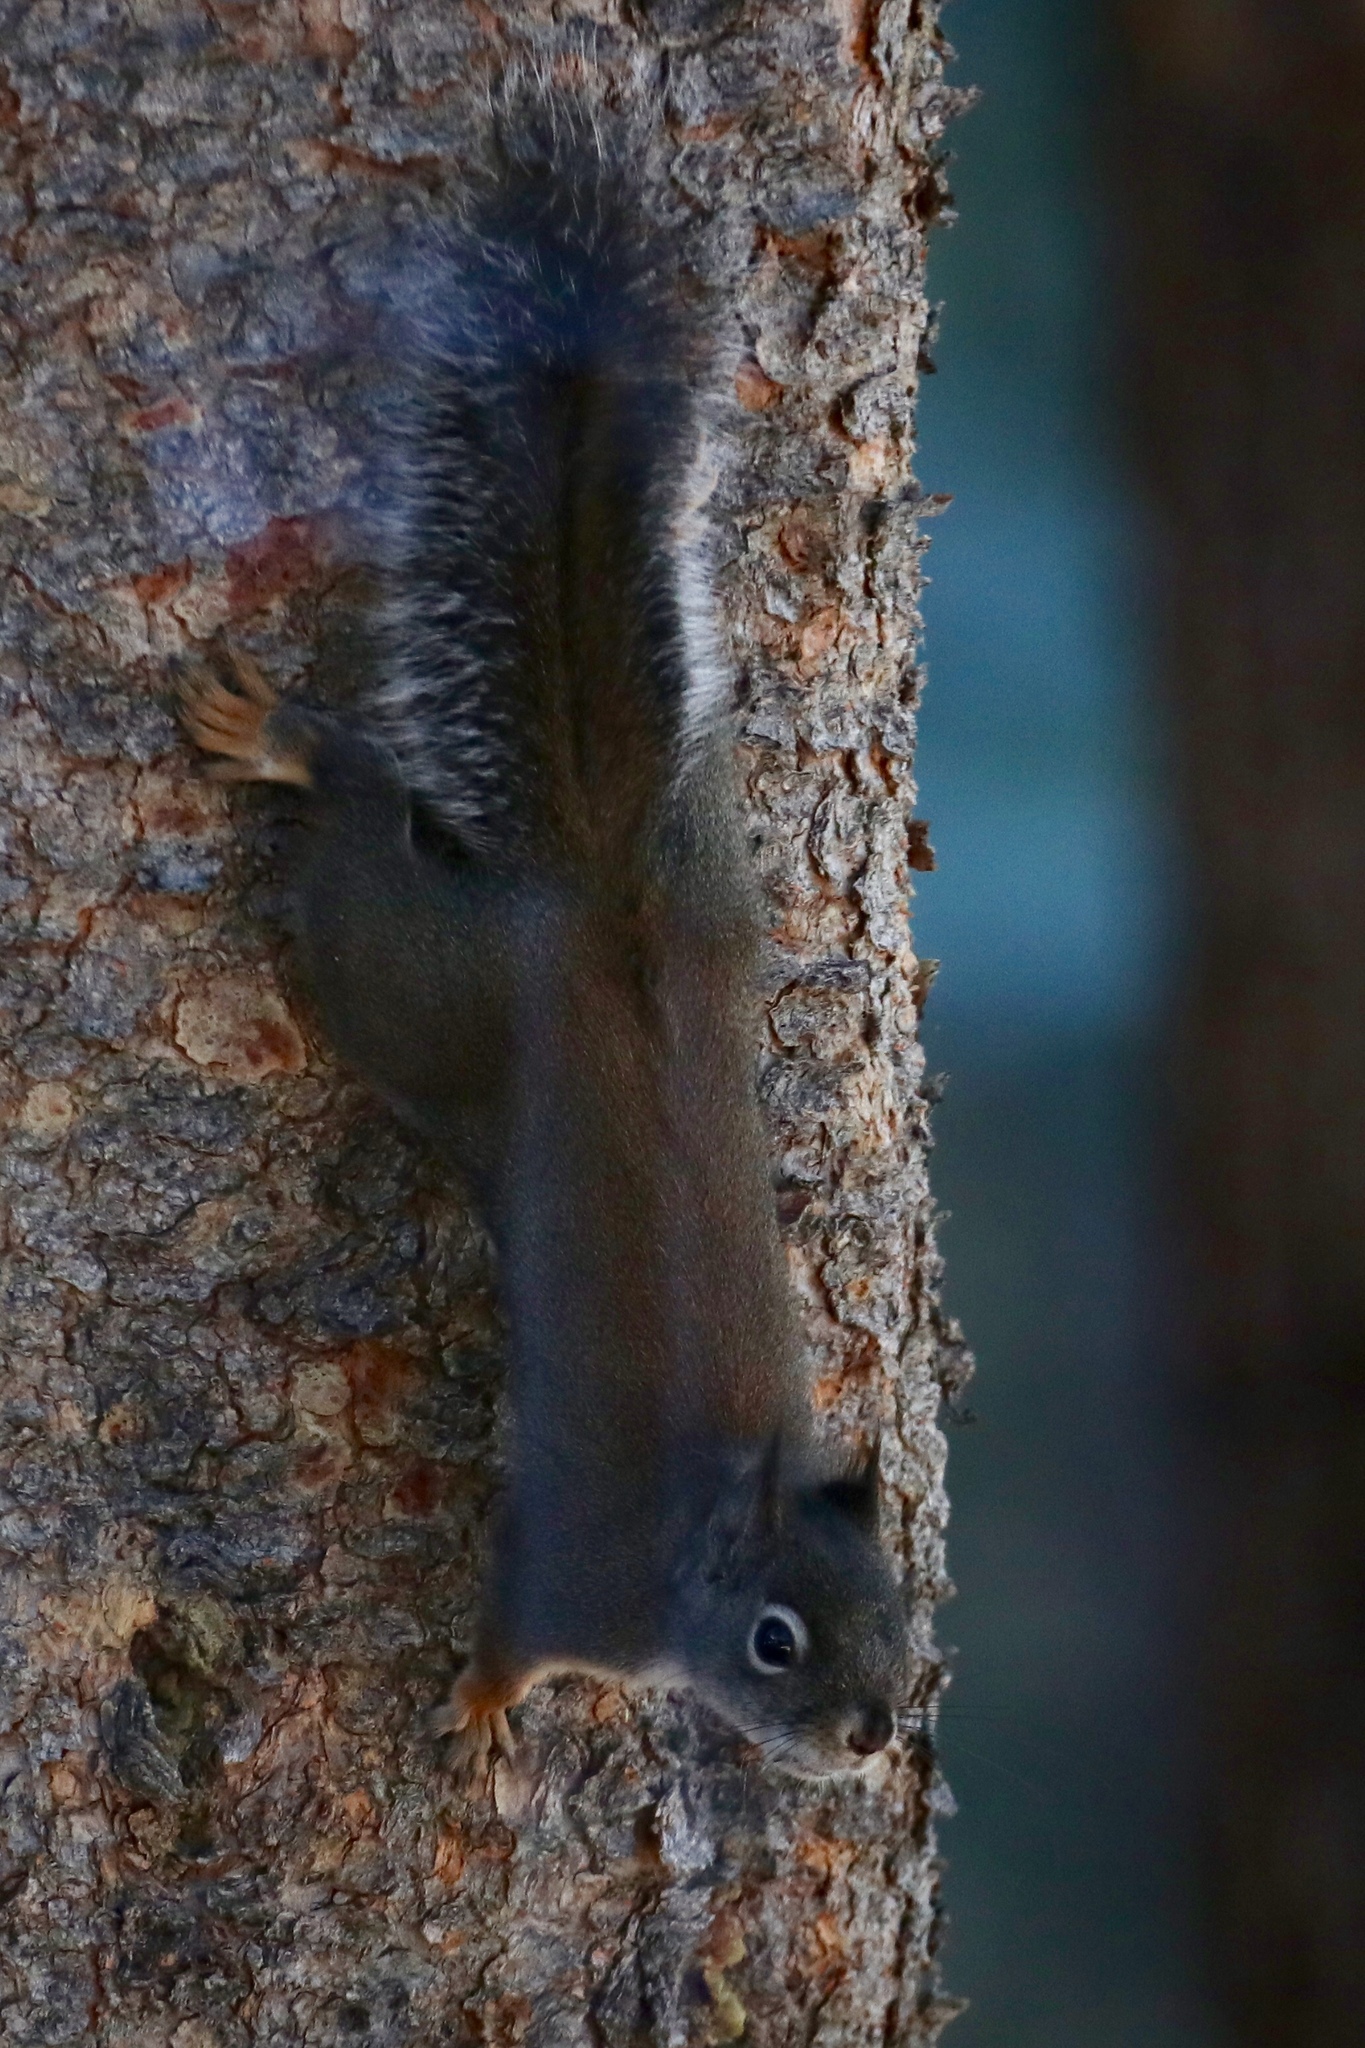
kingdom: Animalia
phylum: Chordata
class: Mammalia
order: Rodentia
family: Sciuridae
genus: Tamiasciurus
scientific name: Tamiasciurus douglasii
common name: Douglas's squirrel
